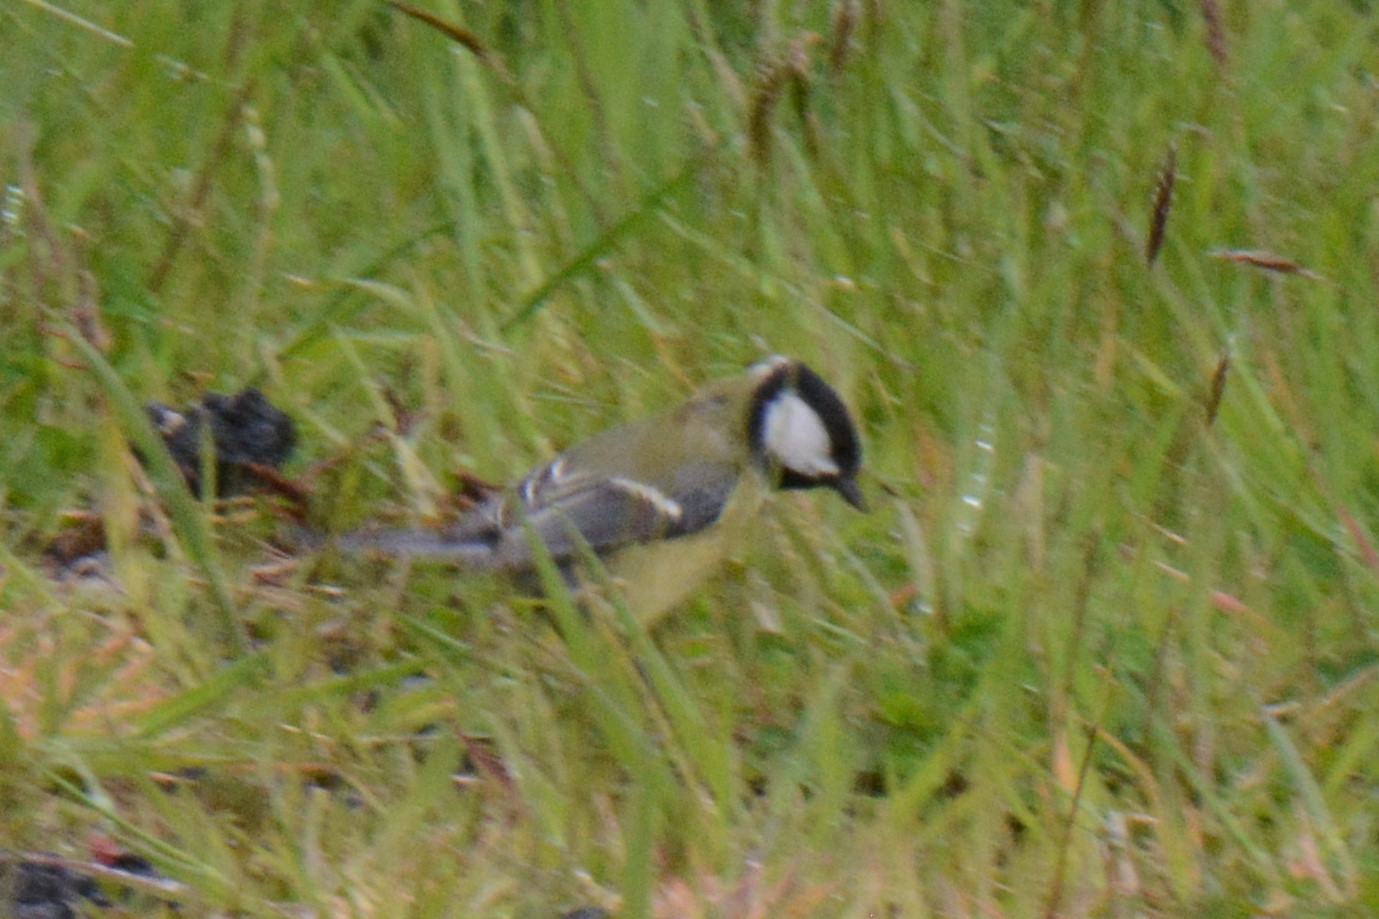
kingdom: Animalia
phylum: Chordata
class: Aves
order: Passeriformes
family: Paridae
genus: Parus
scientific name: Parus major
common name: Great tit
